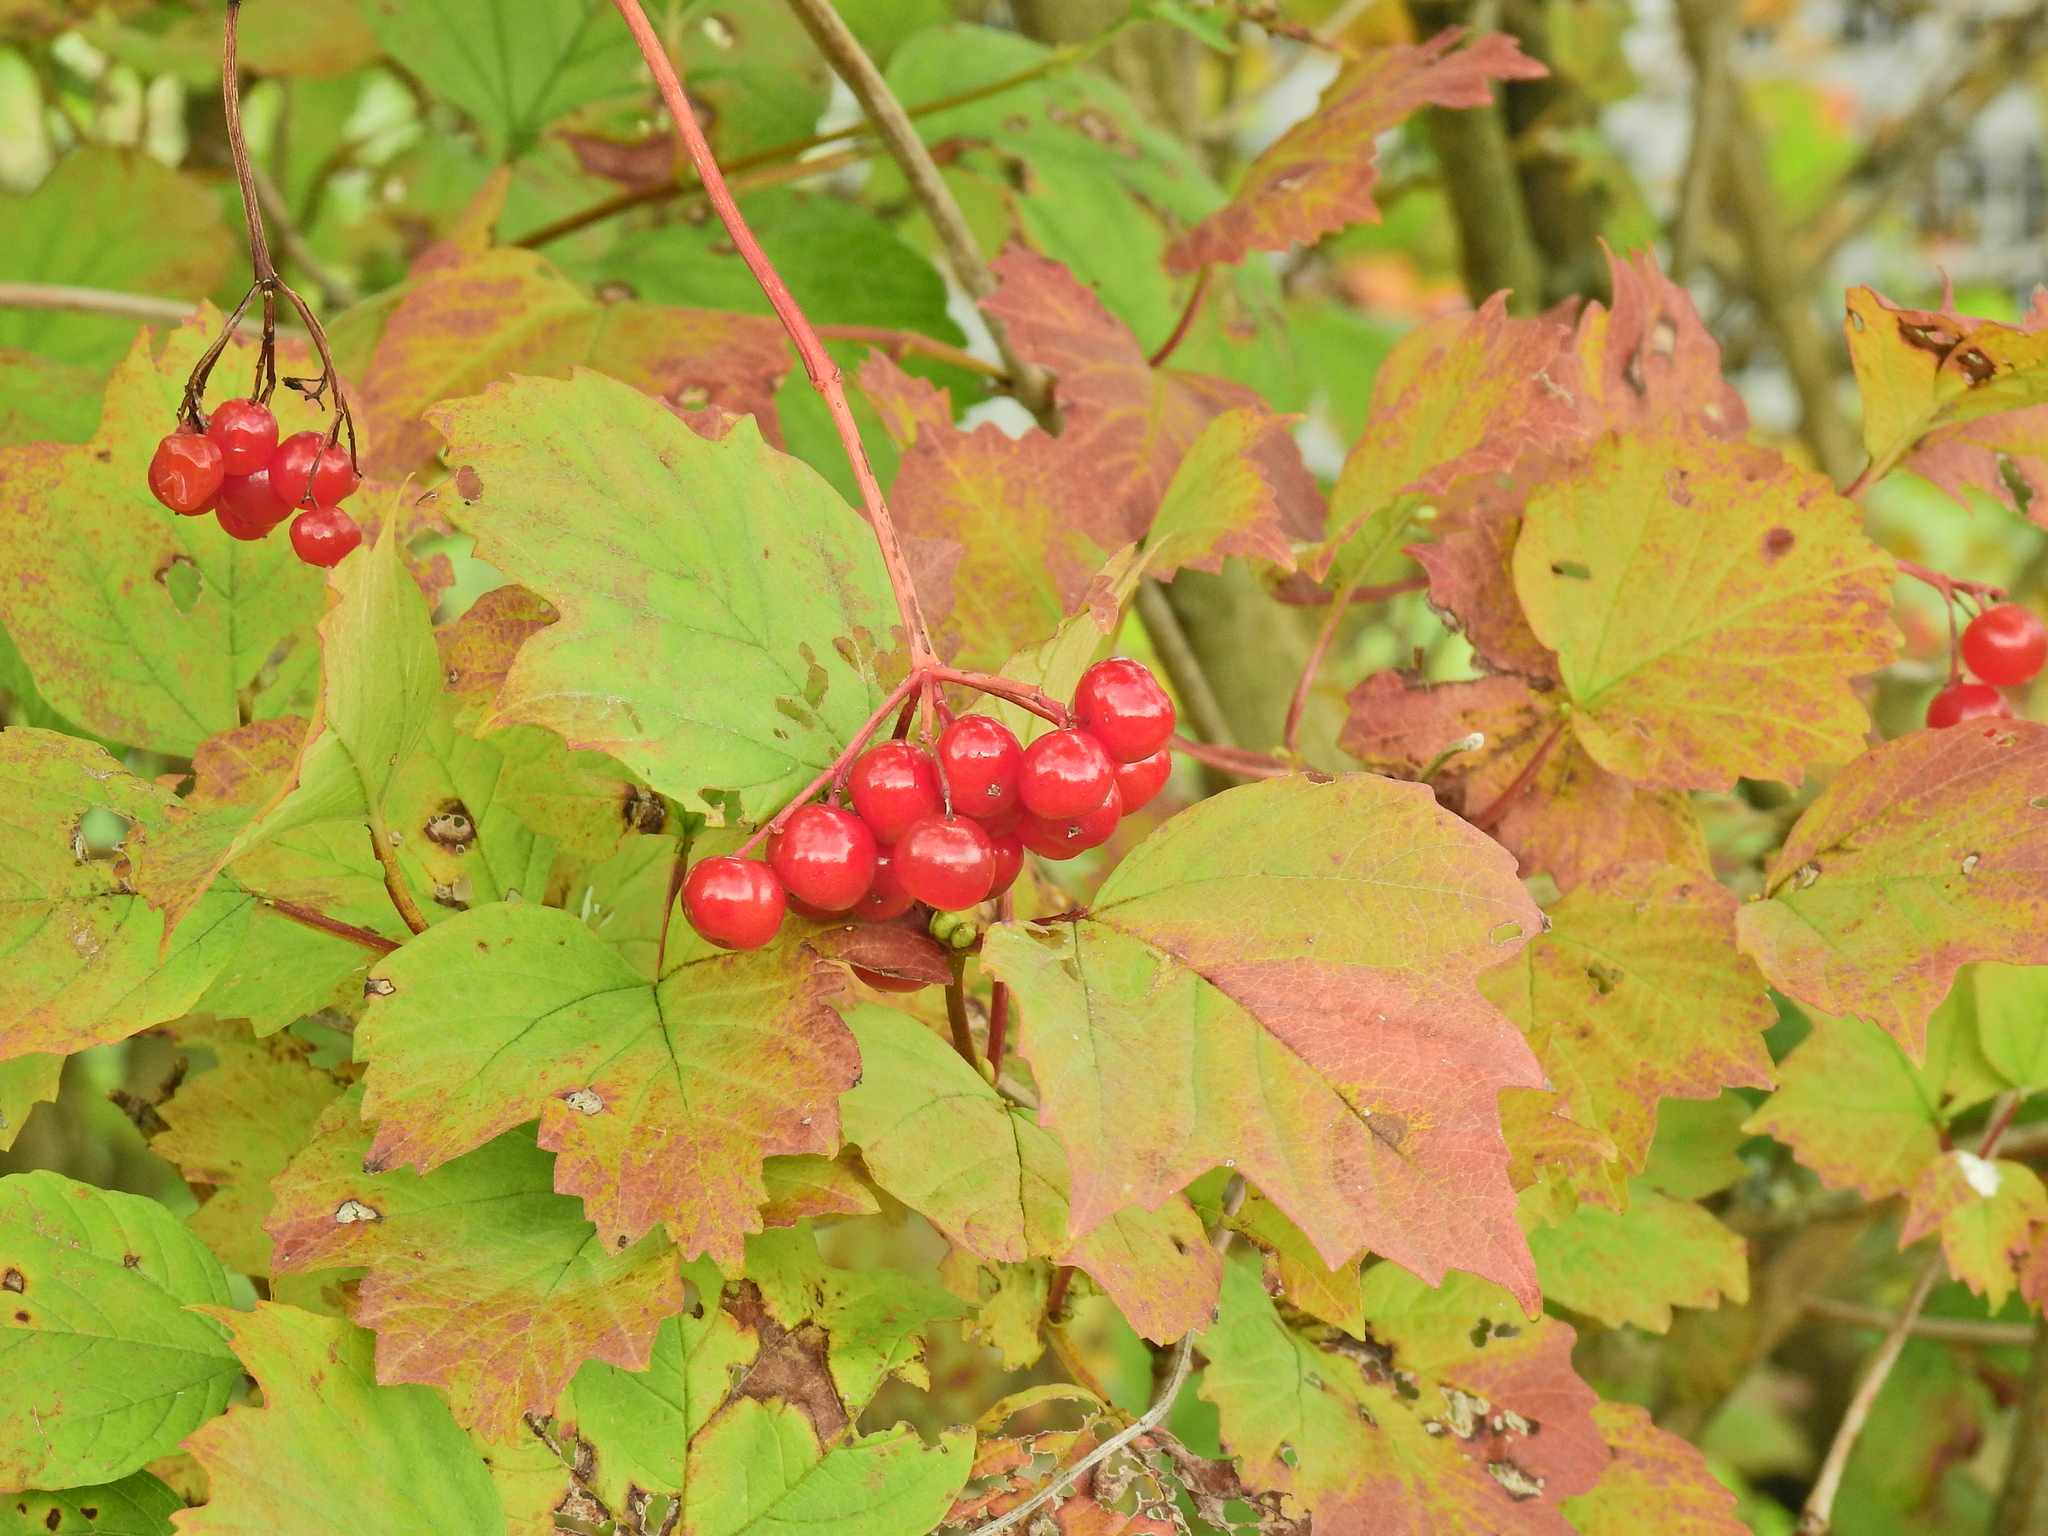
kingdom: Plantae
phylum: Tracheophyta
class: Magnoliopsida
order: Dipsacales
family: Viburnaceae
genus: Viburnum
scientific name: Viburnum opulus
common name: Guelder-rose
